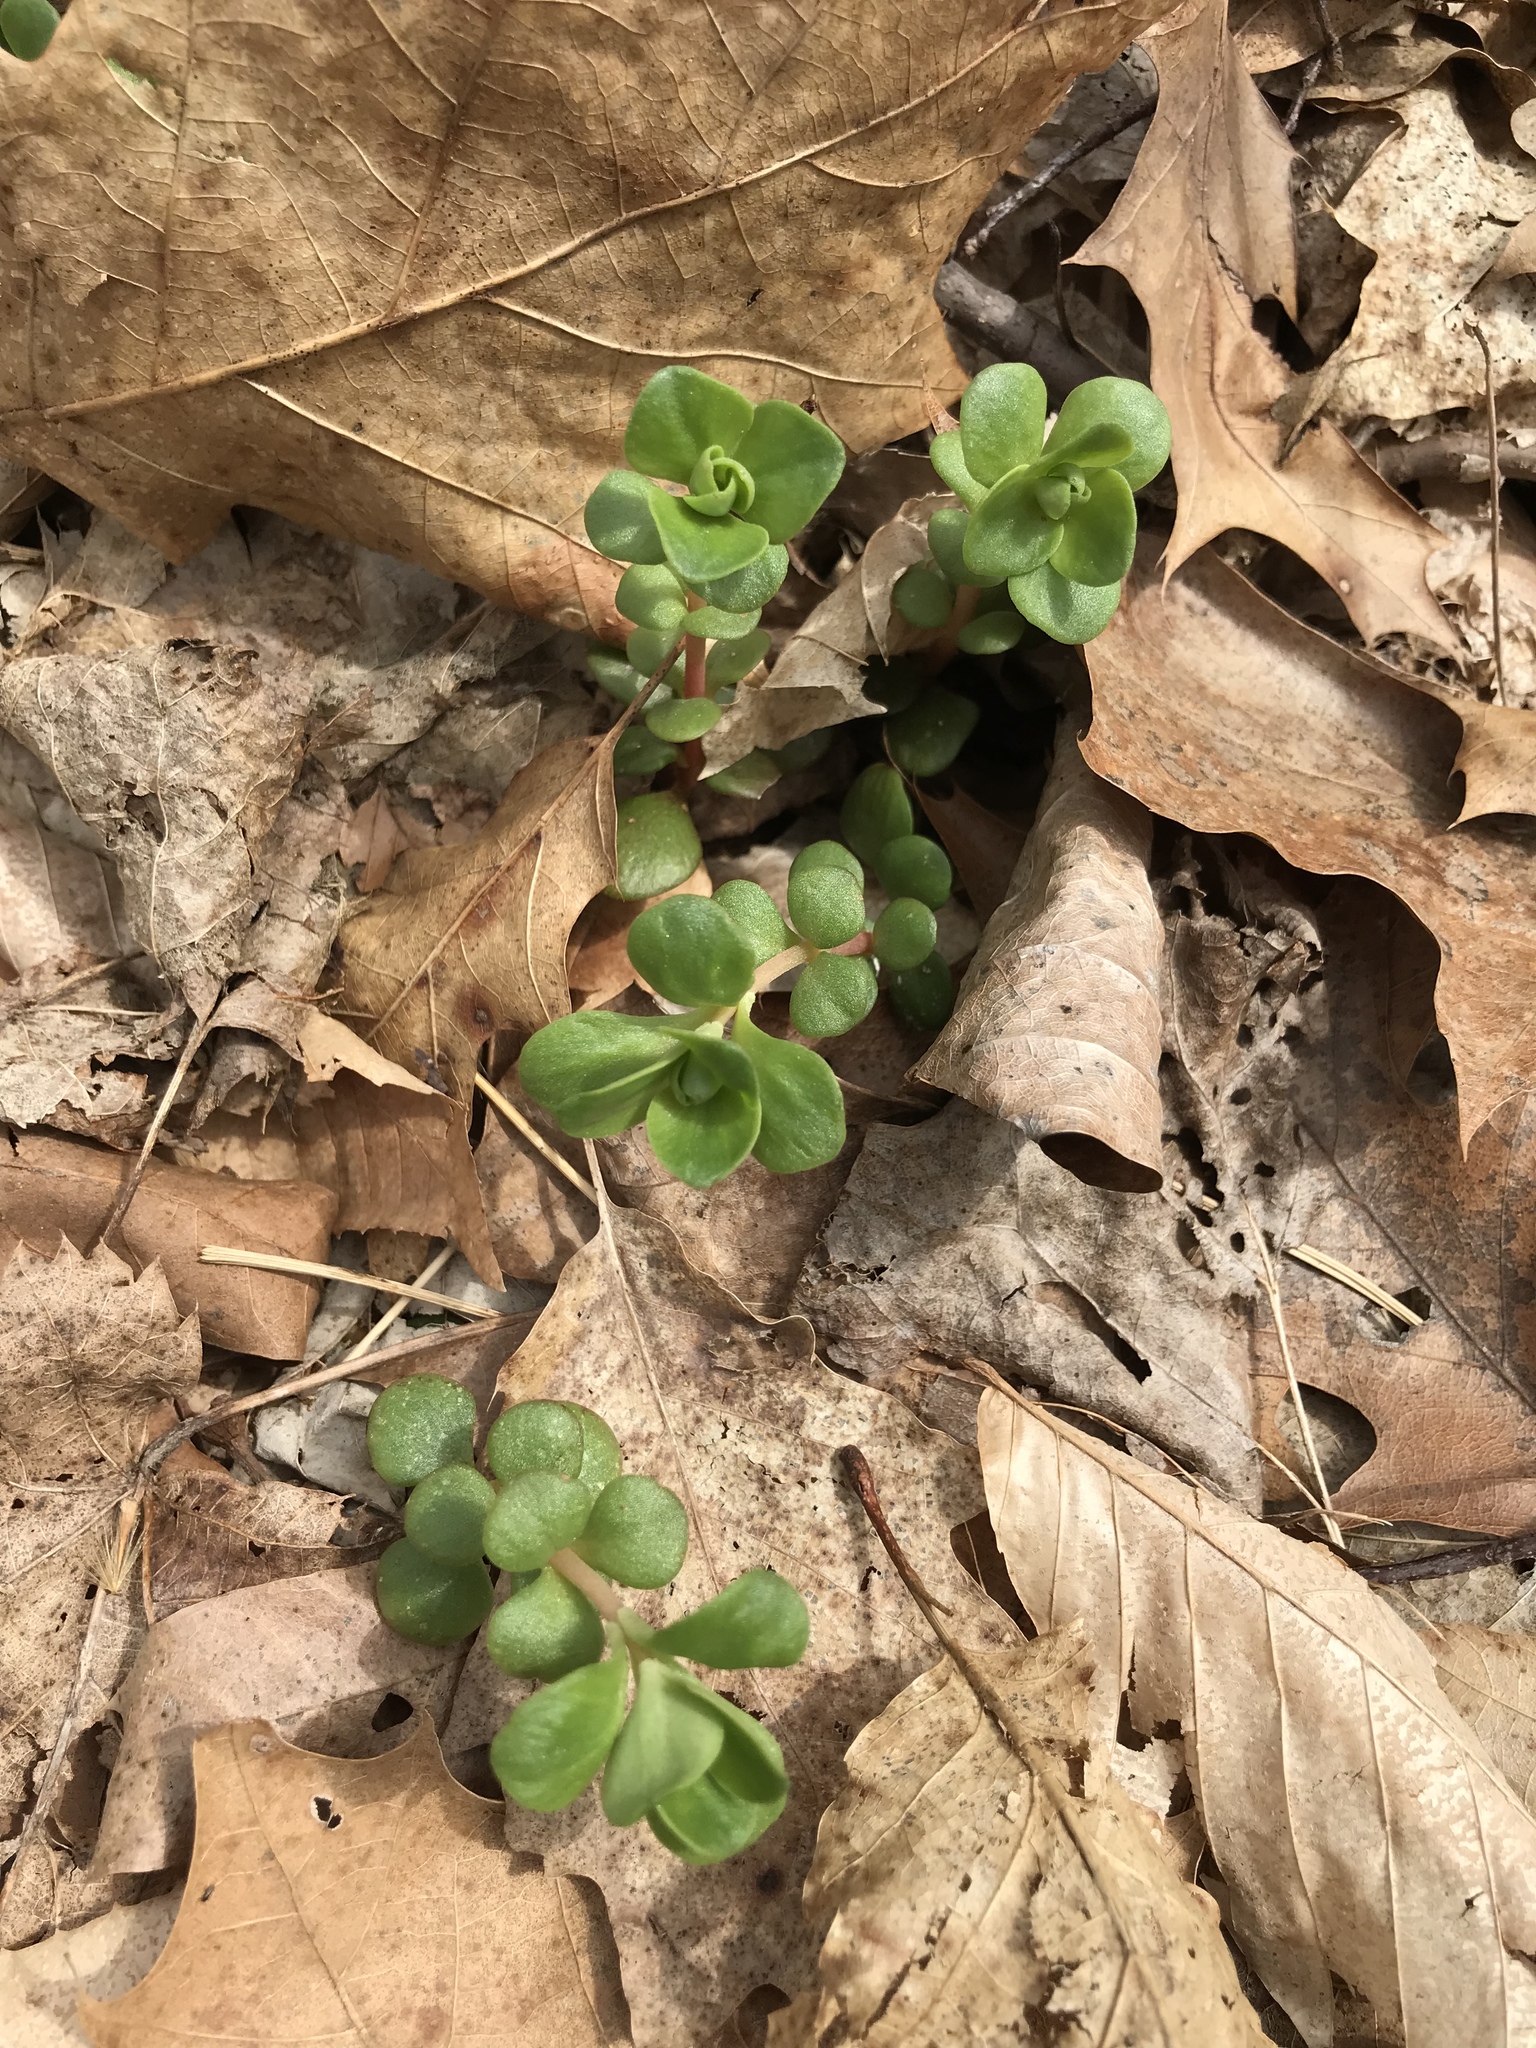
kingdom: Plantae
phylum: Tracheophyta
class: Magnoliopsida
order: Saxifragales
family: Crassulaceae
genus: Sedum
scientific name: Sedum ternatum
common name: Wild stonecrop
